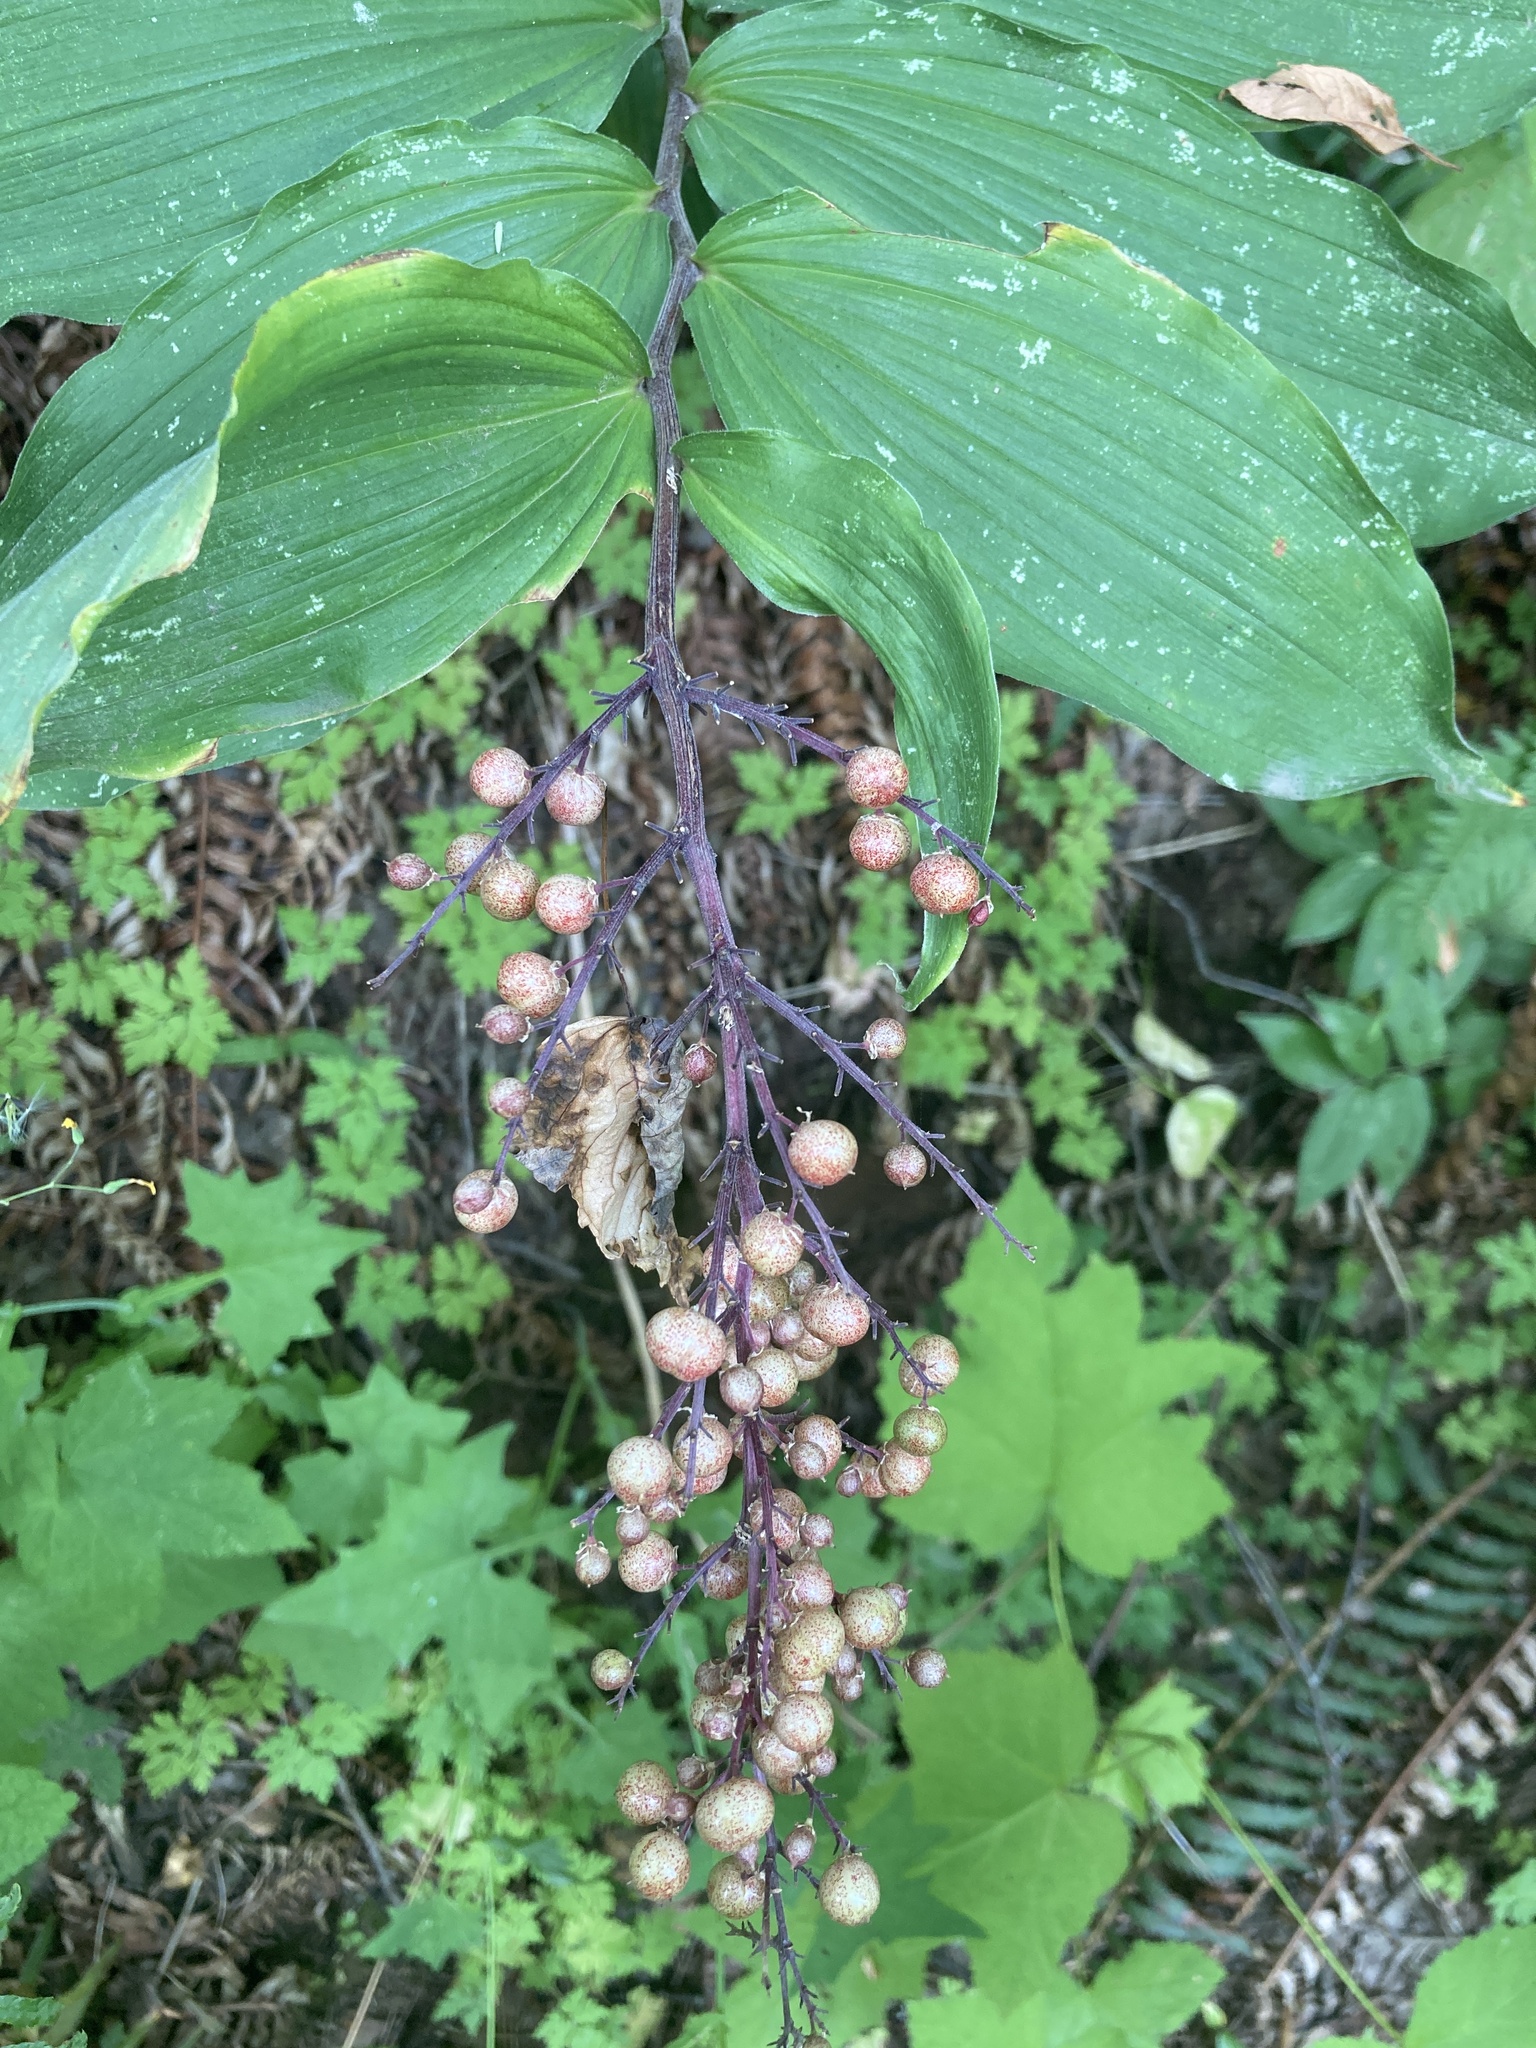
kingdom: Plantae
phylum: Tracheophyta
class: Liliopsida
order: Asparagales
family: Asparagaceae
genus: Maianthemum
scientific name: Maianthemum racemosum
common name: False spikenard
